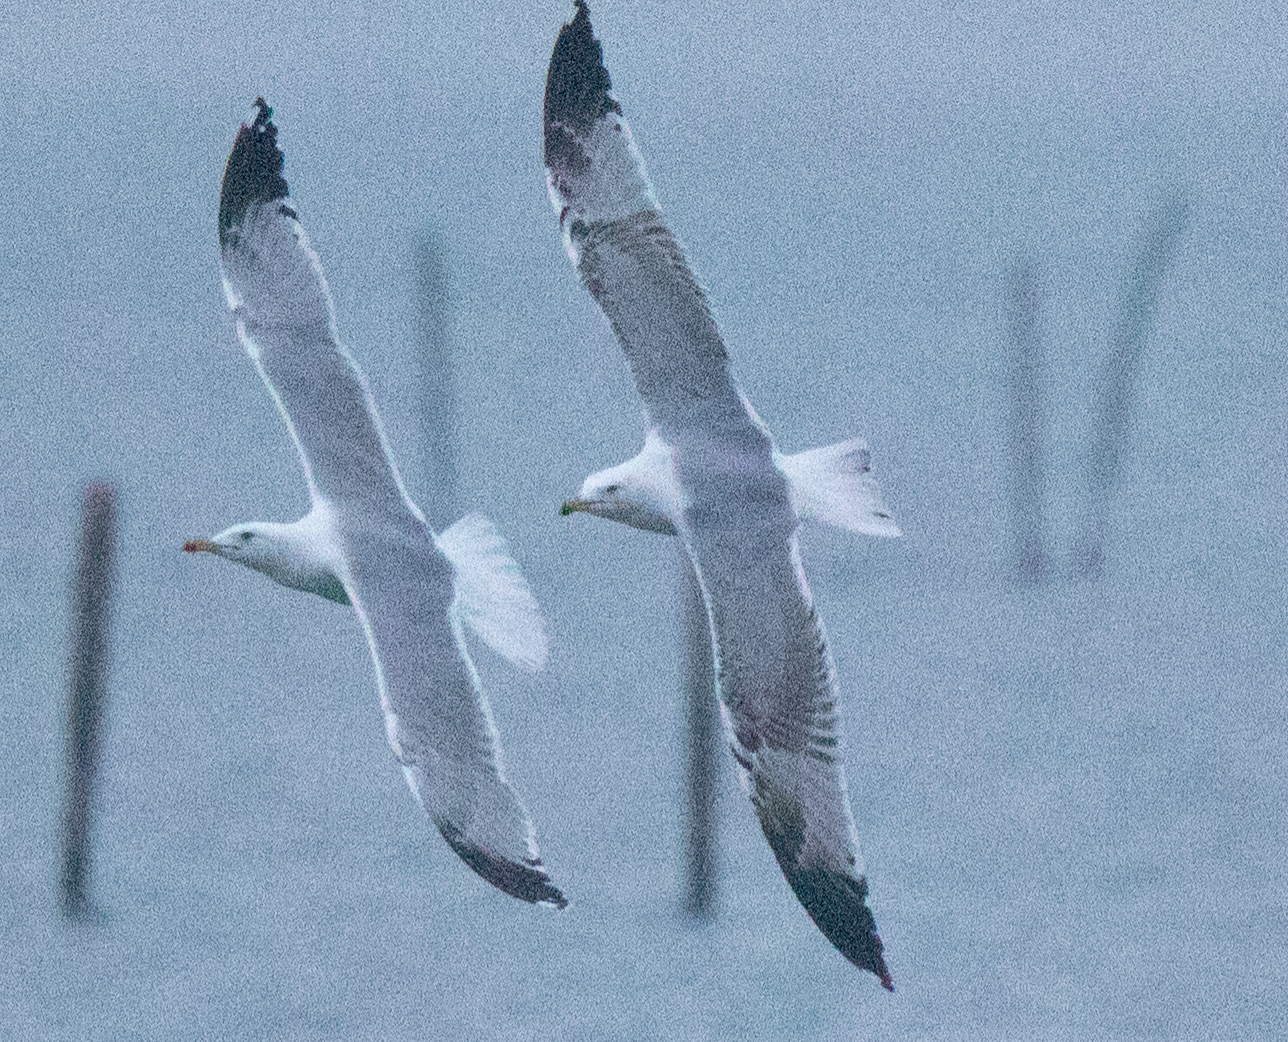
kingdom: Animalia
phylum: Chordata
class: Aves
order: Charadriiformes
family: Laridae
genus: Larus
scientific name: Larus michahellis
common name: Yellow-legged gull
